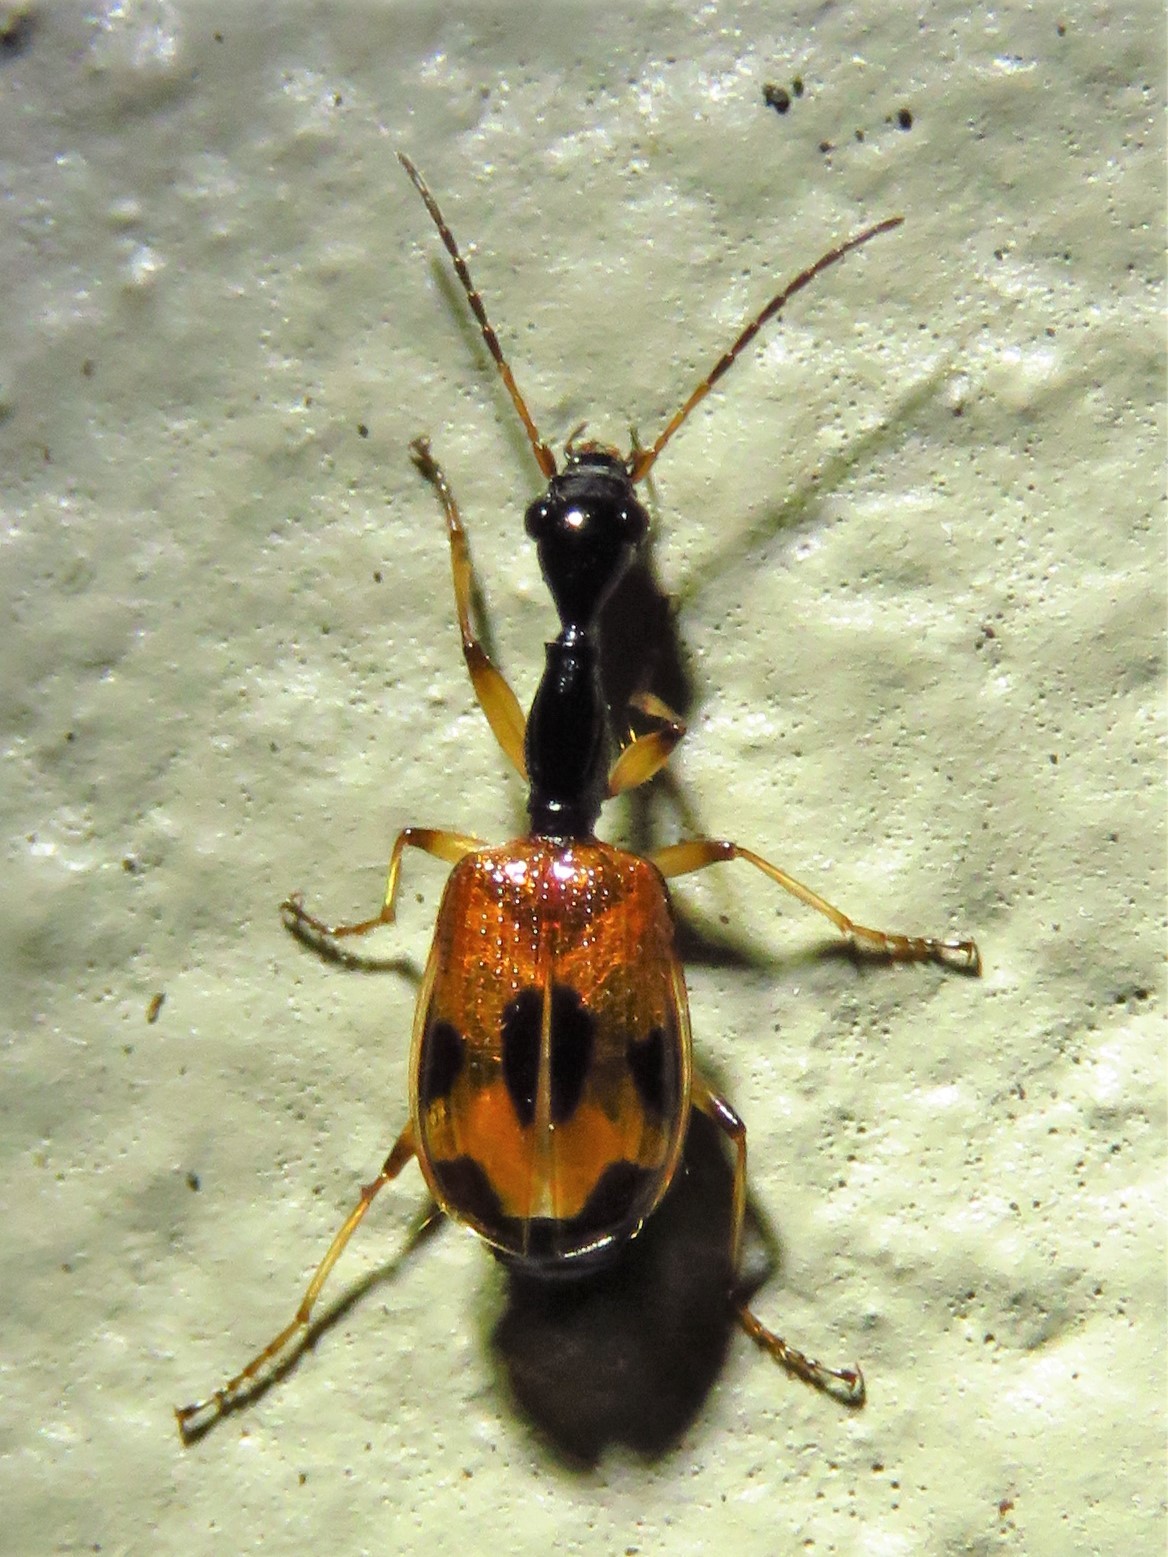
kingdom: Animalia
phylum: Arthropoda
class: Insecta
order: Coleoptera
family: Carabidae
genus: Colliuris
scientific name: Colliuris pensylvanica
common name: Long-necked ground beetle
